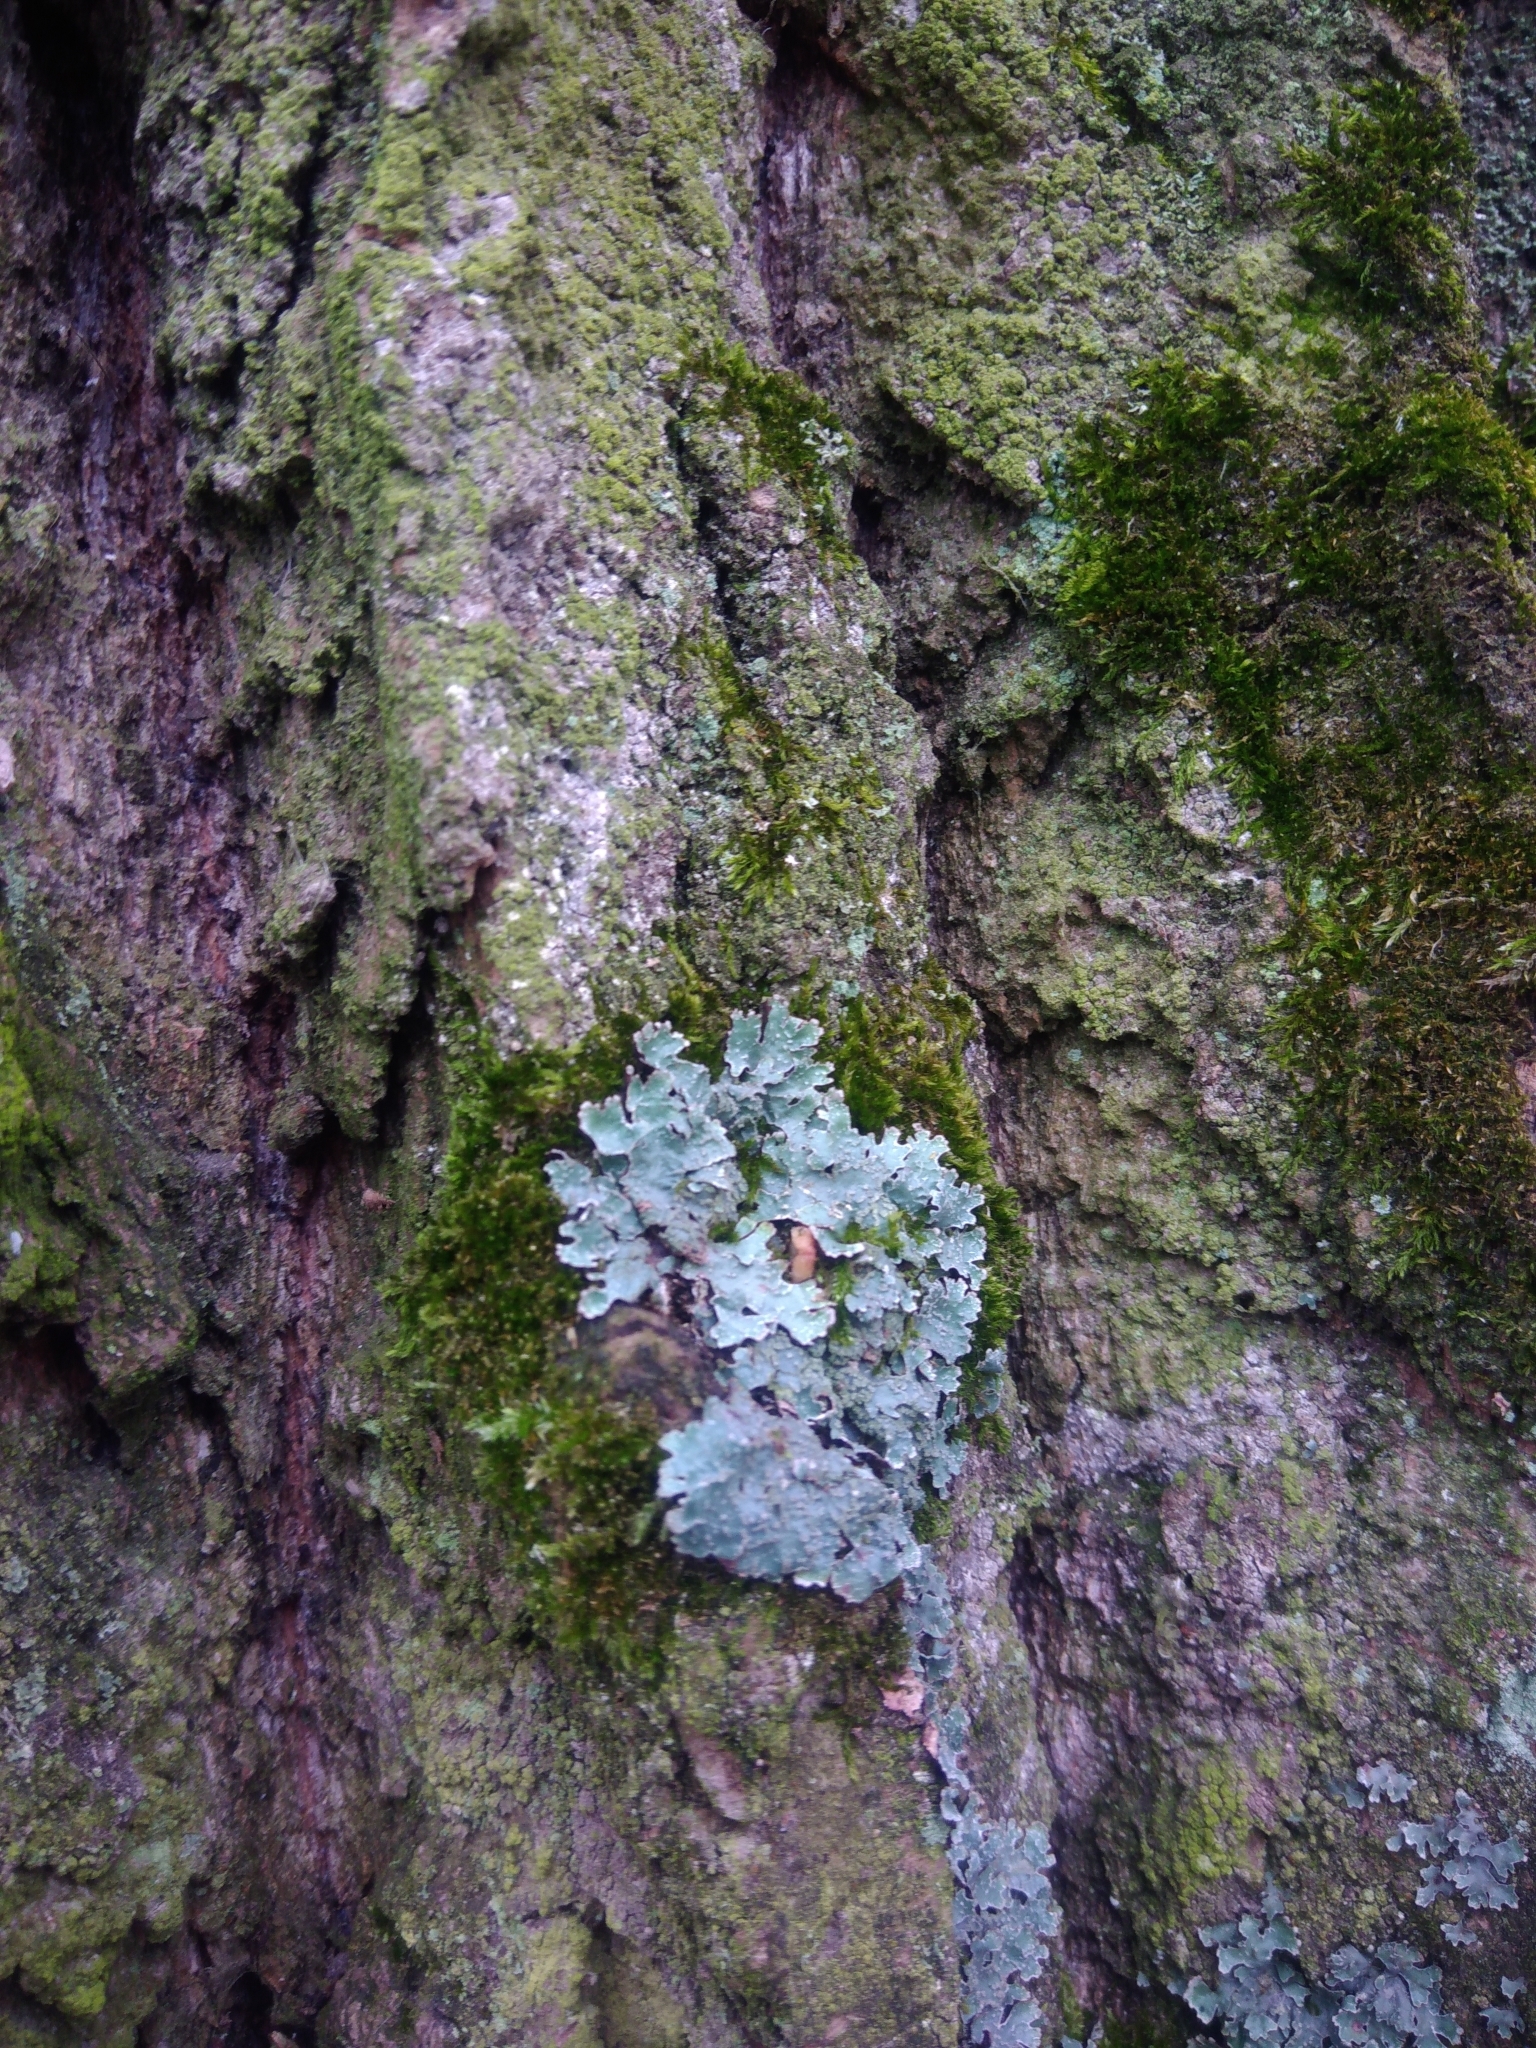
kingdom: Fungi
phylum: Ascomycota
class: Lecanoromycetes
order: Lecanorales
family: Parmeliaceae
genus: Parmelia
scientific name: Parmelia sulcata
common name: Netted shield lichen
